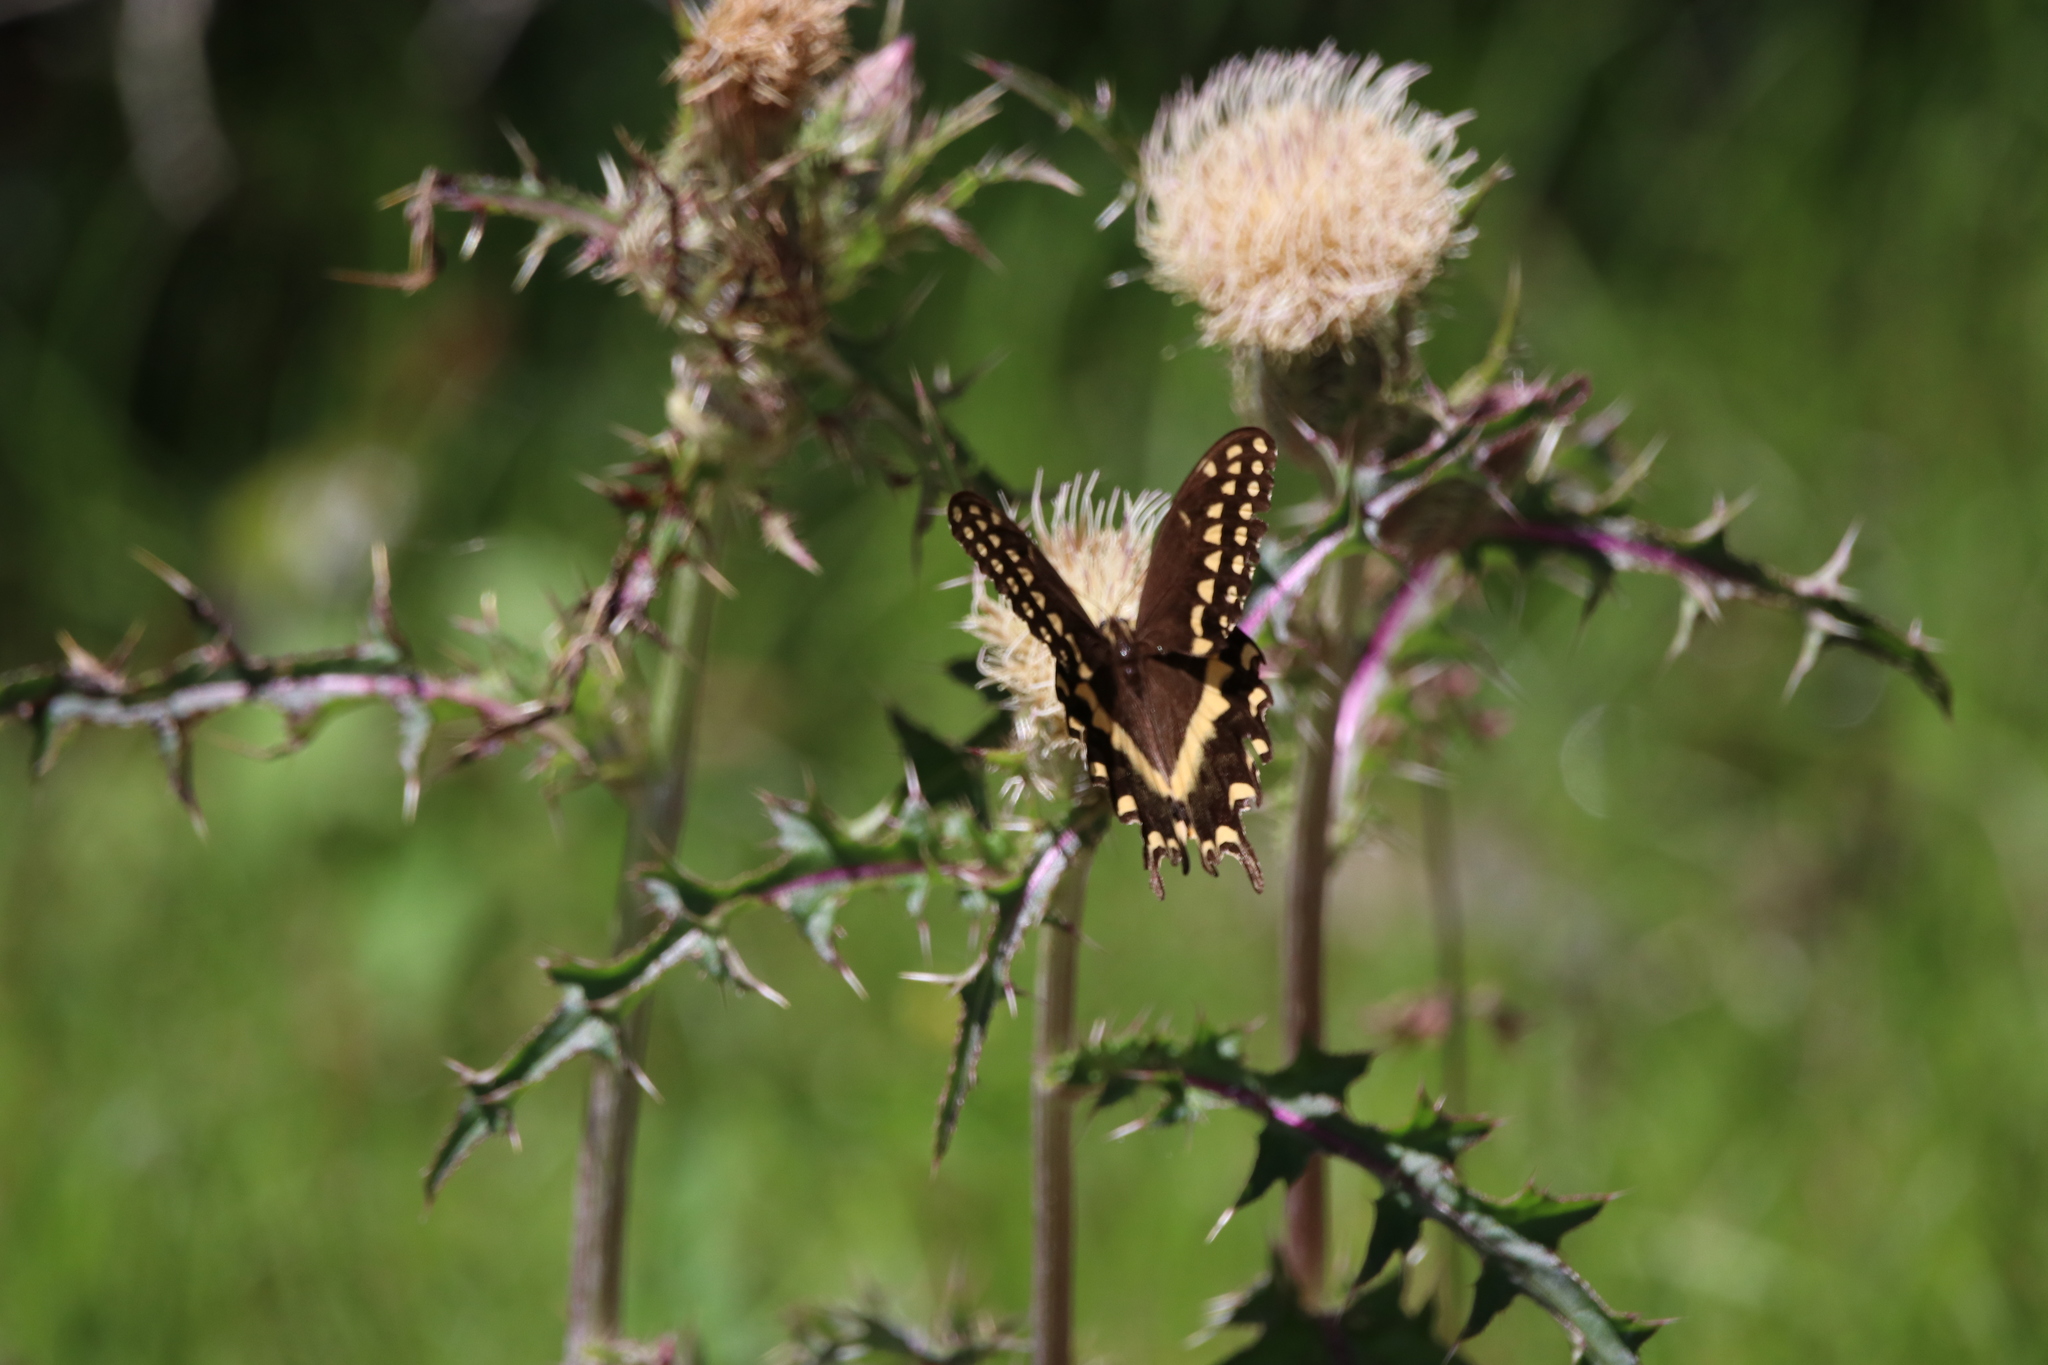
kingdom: Animalia
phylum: Arthropoda
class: Insecta
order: Lepidoptera
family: Papilionidae
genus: Papilio
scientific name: Papilio palamedes
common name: Palamedes swallowtail
